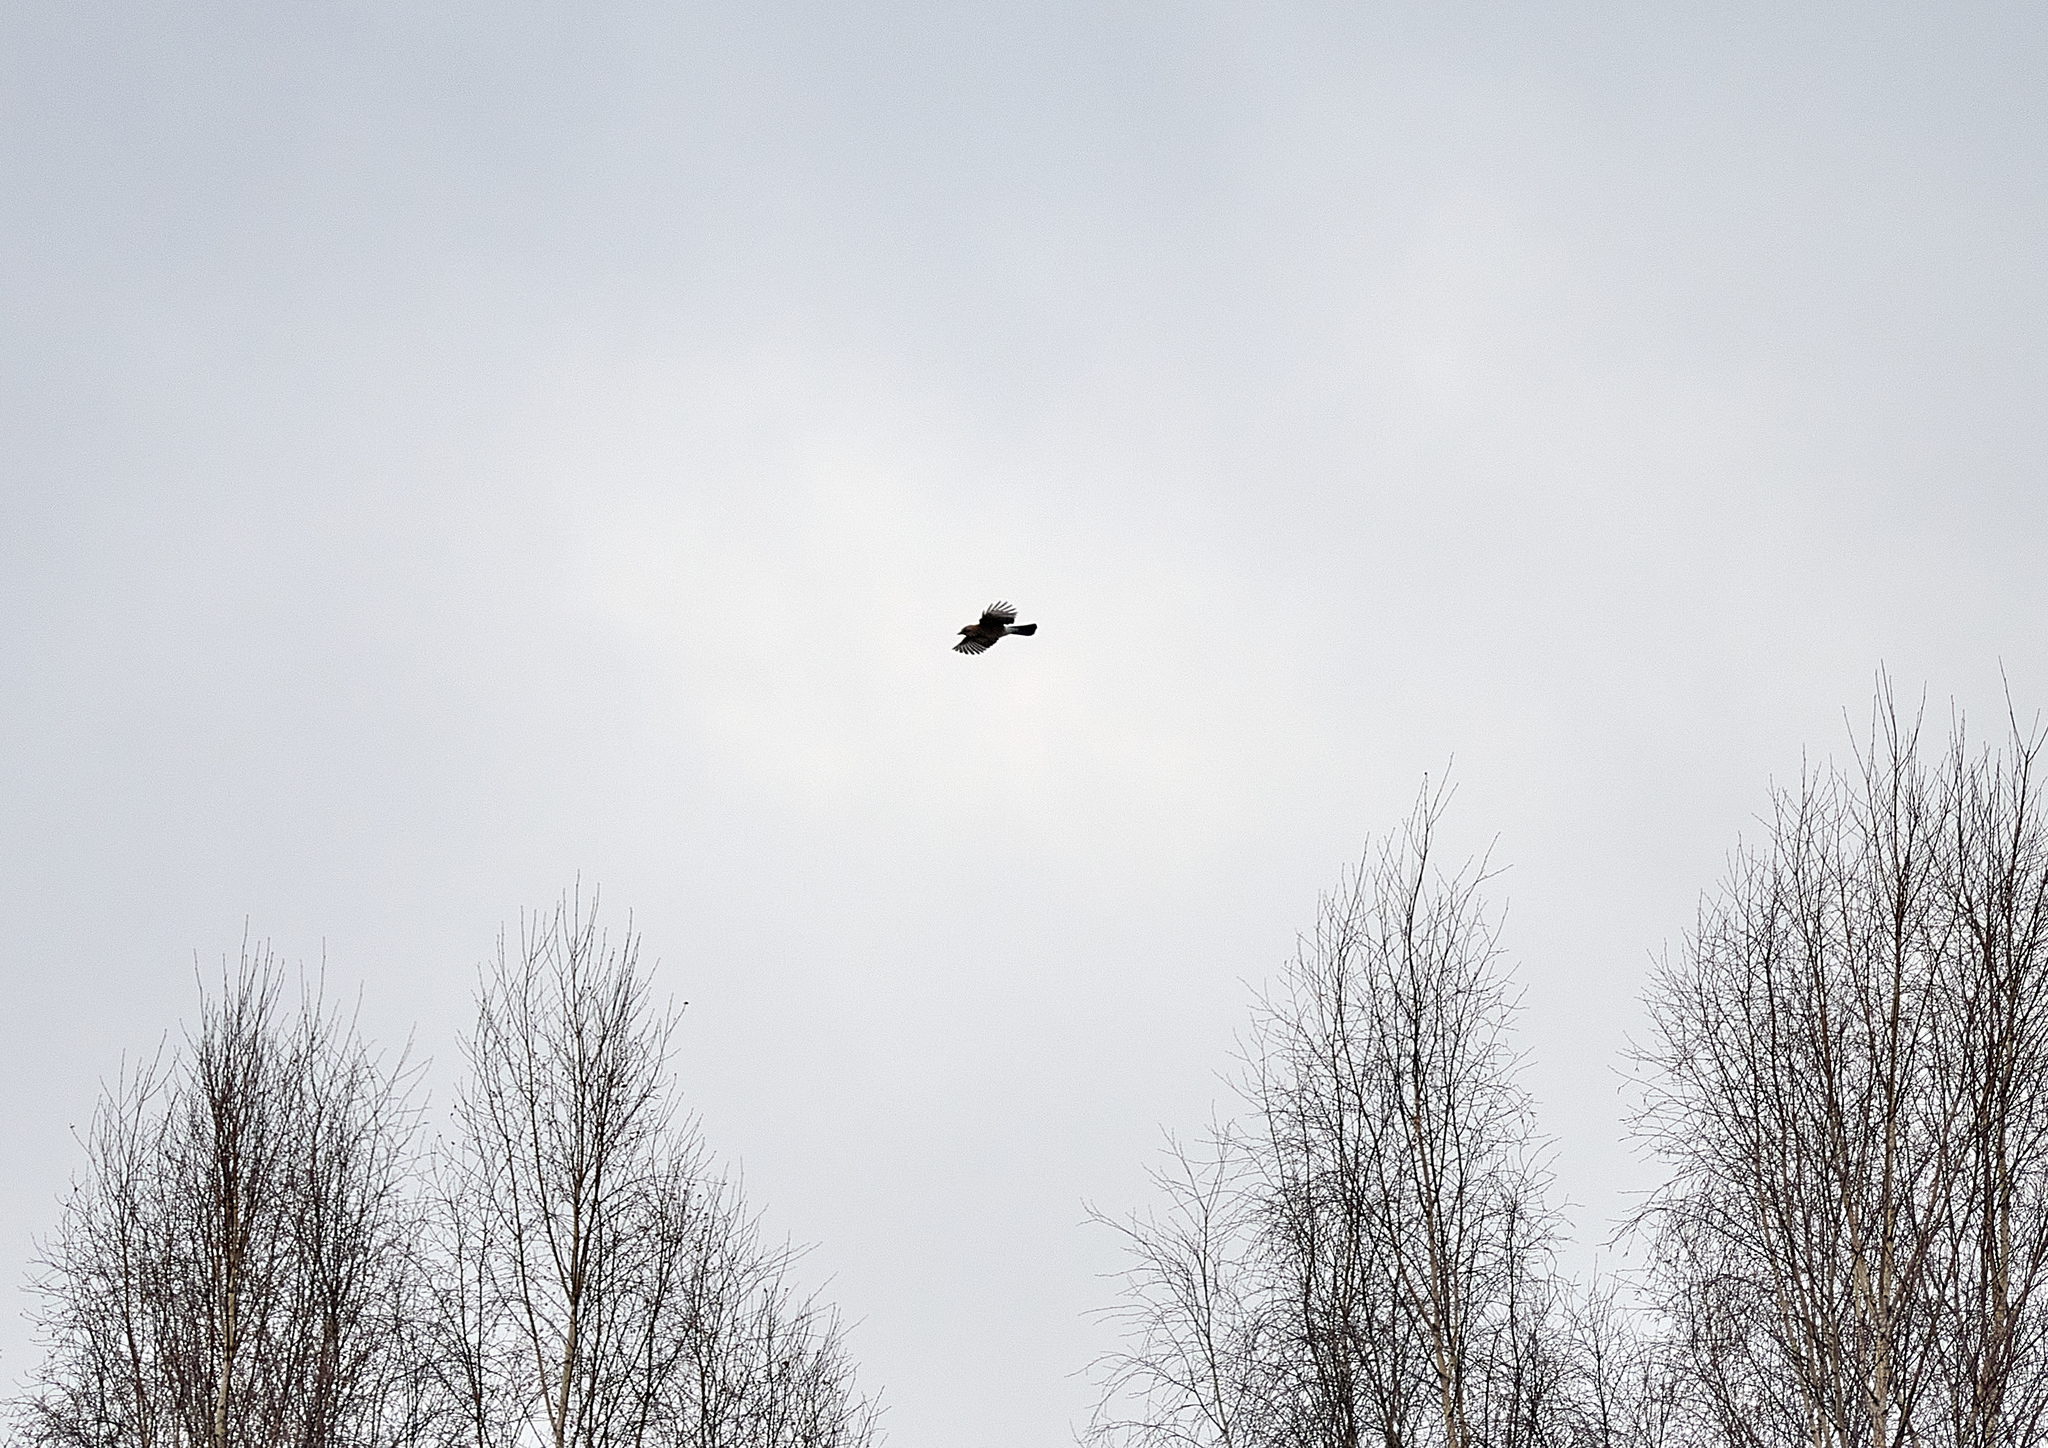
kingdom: Animalia
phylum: Chordata
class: Aves
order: Passeriformes
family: Corvidae
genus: Garrulus
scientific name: Garrulus glandarius
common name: Eurasian jay
